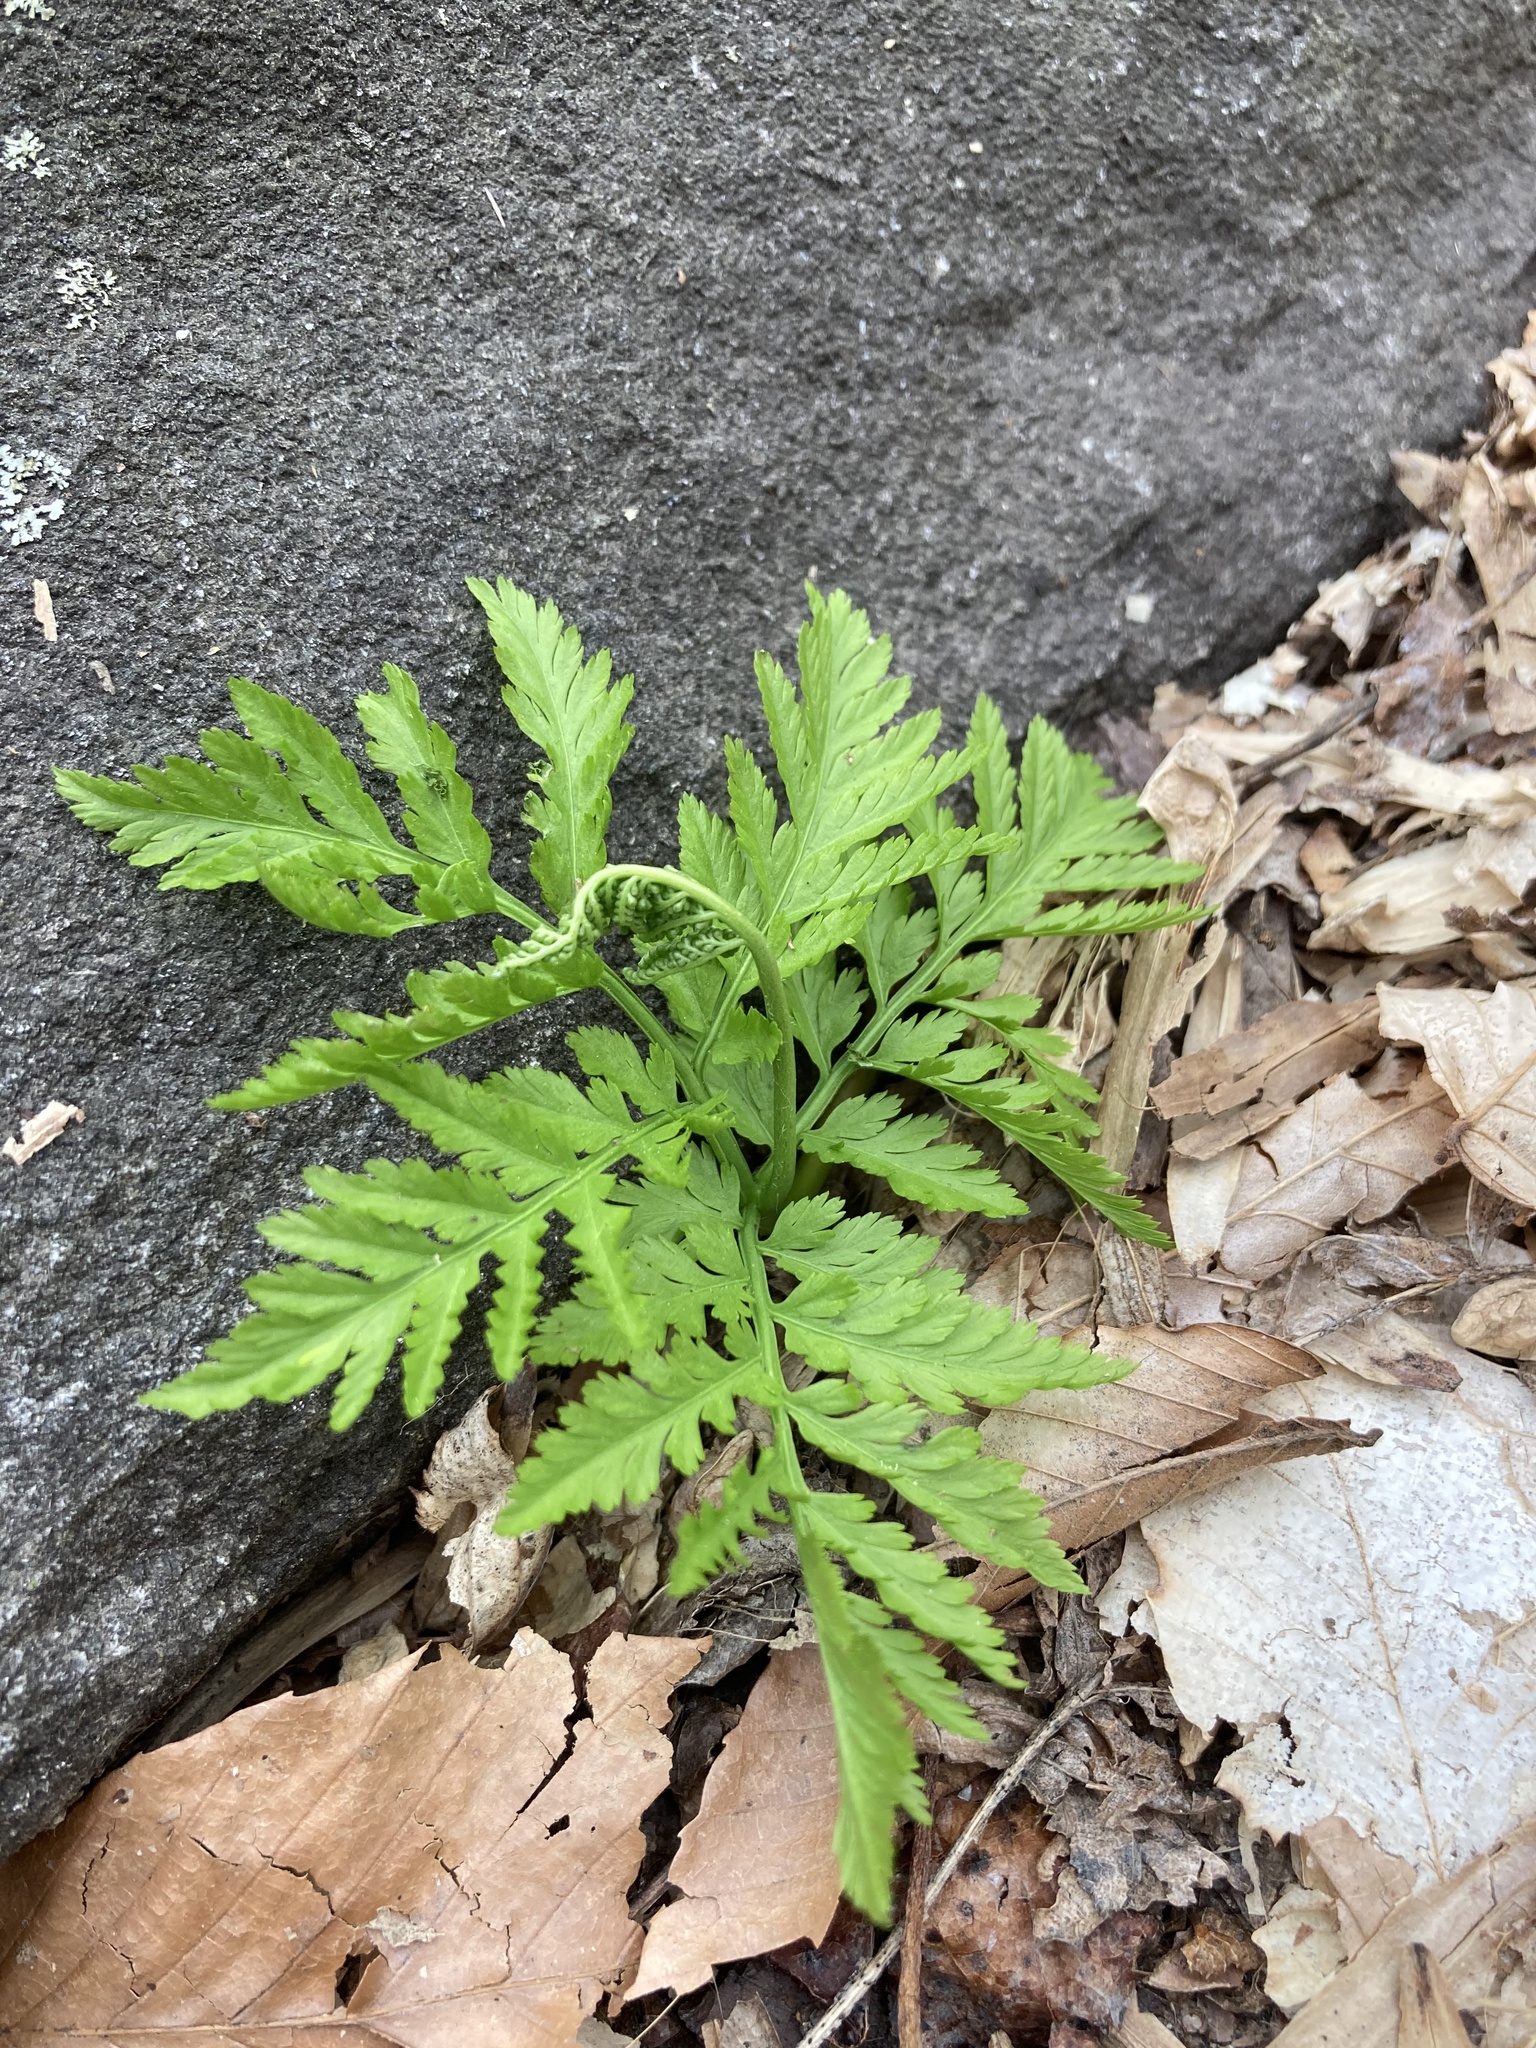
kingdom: Plantae
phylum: Tracheophyta
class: Polypodiopsida
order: Ophioglossales
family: Ophioglossaceae
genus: Botrypus
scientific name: Botrypus virginianus
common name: Common grapefern
